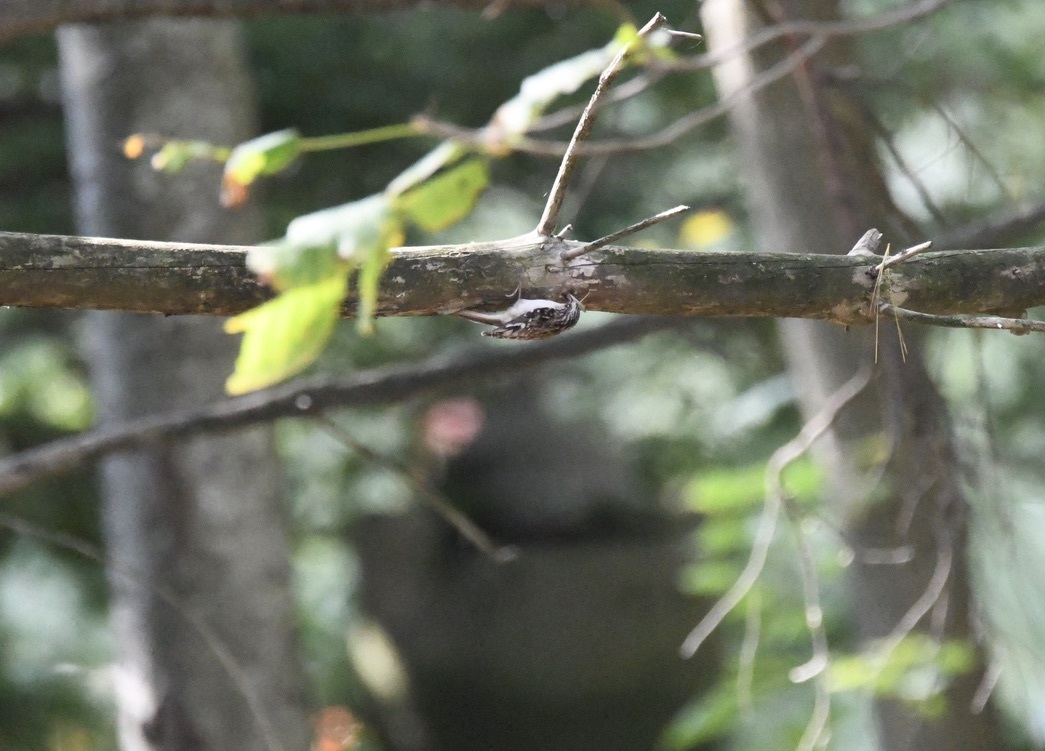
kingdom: Animalia
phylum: Chordata
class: Aves
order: Passeriformes
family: Certhiidae
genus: Certhia
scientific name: Certhia americana
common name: Brown creeper
